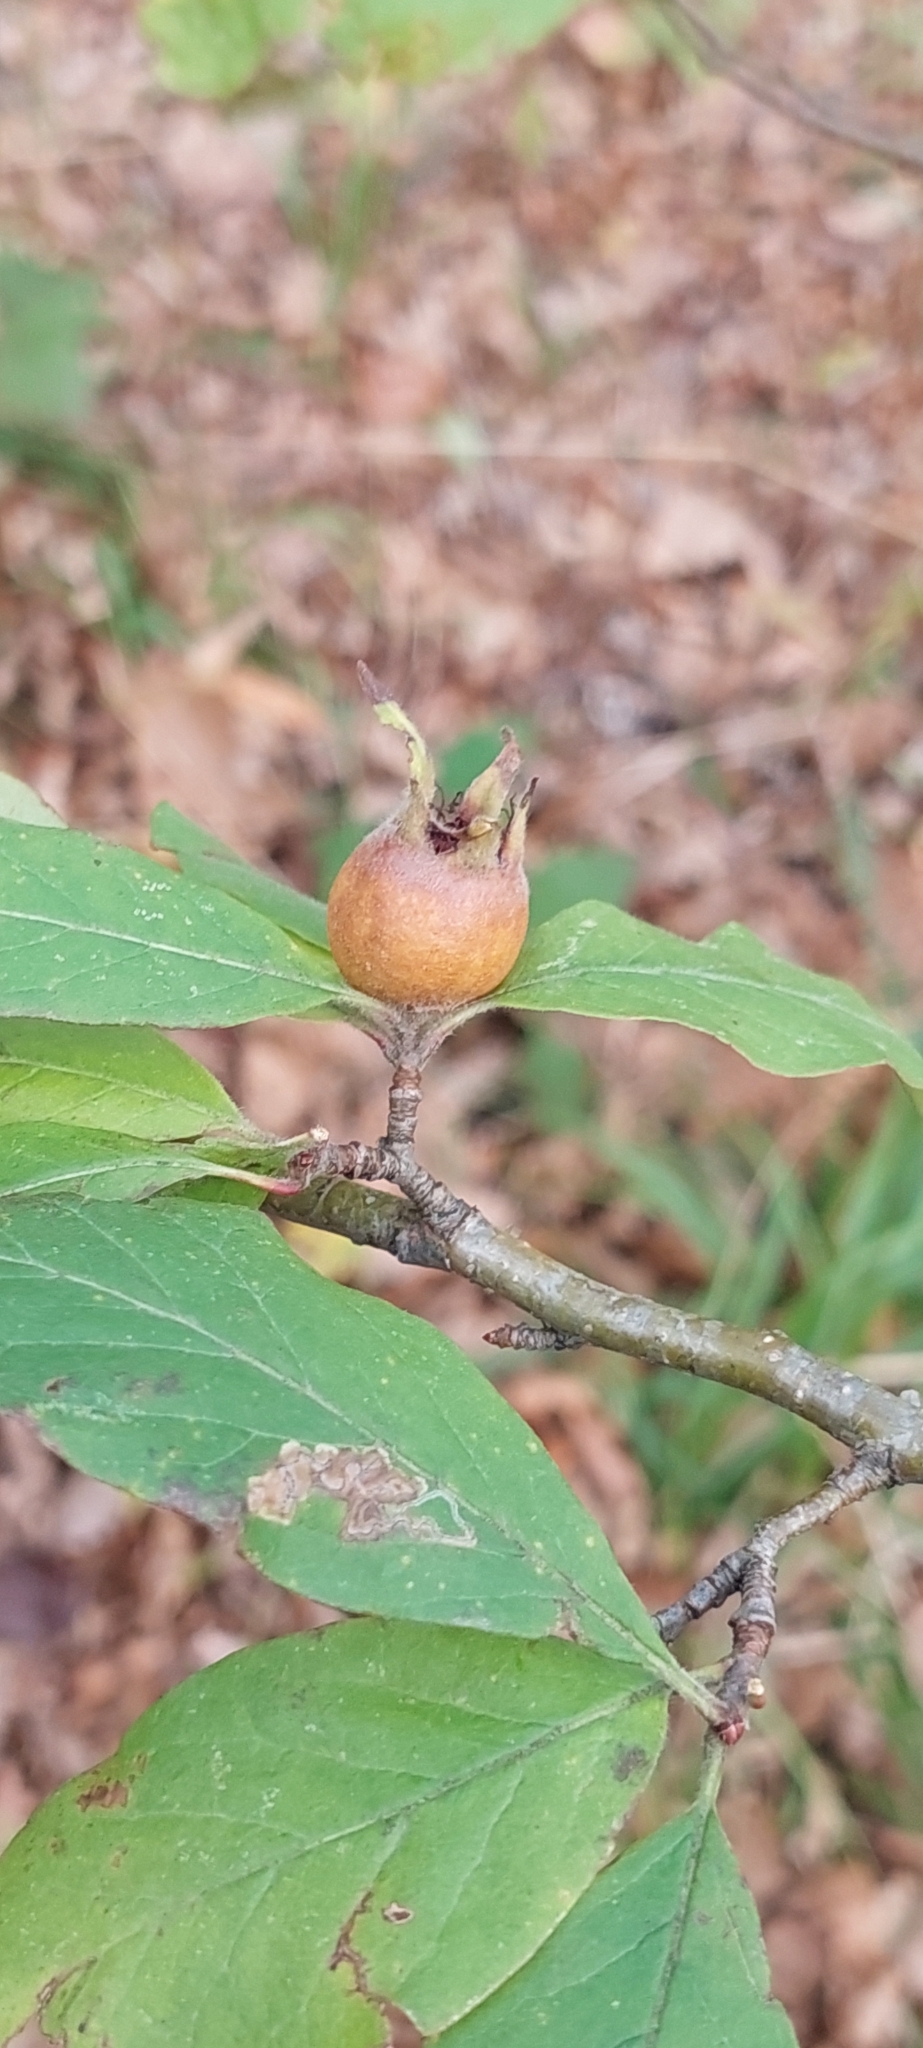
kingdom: Plantae
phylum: Tracheophyta
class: Magnoliopsida
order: Rosales
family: Rosaceae
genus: Mespilus
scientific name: Mespilus germanica
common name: Medlar
